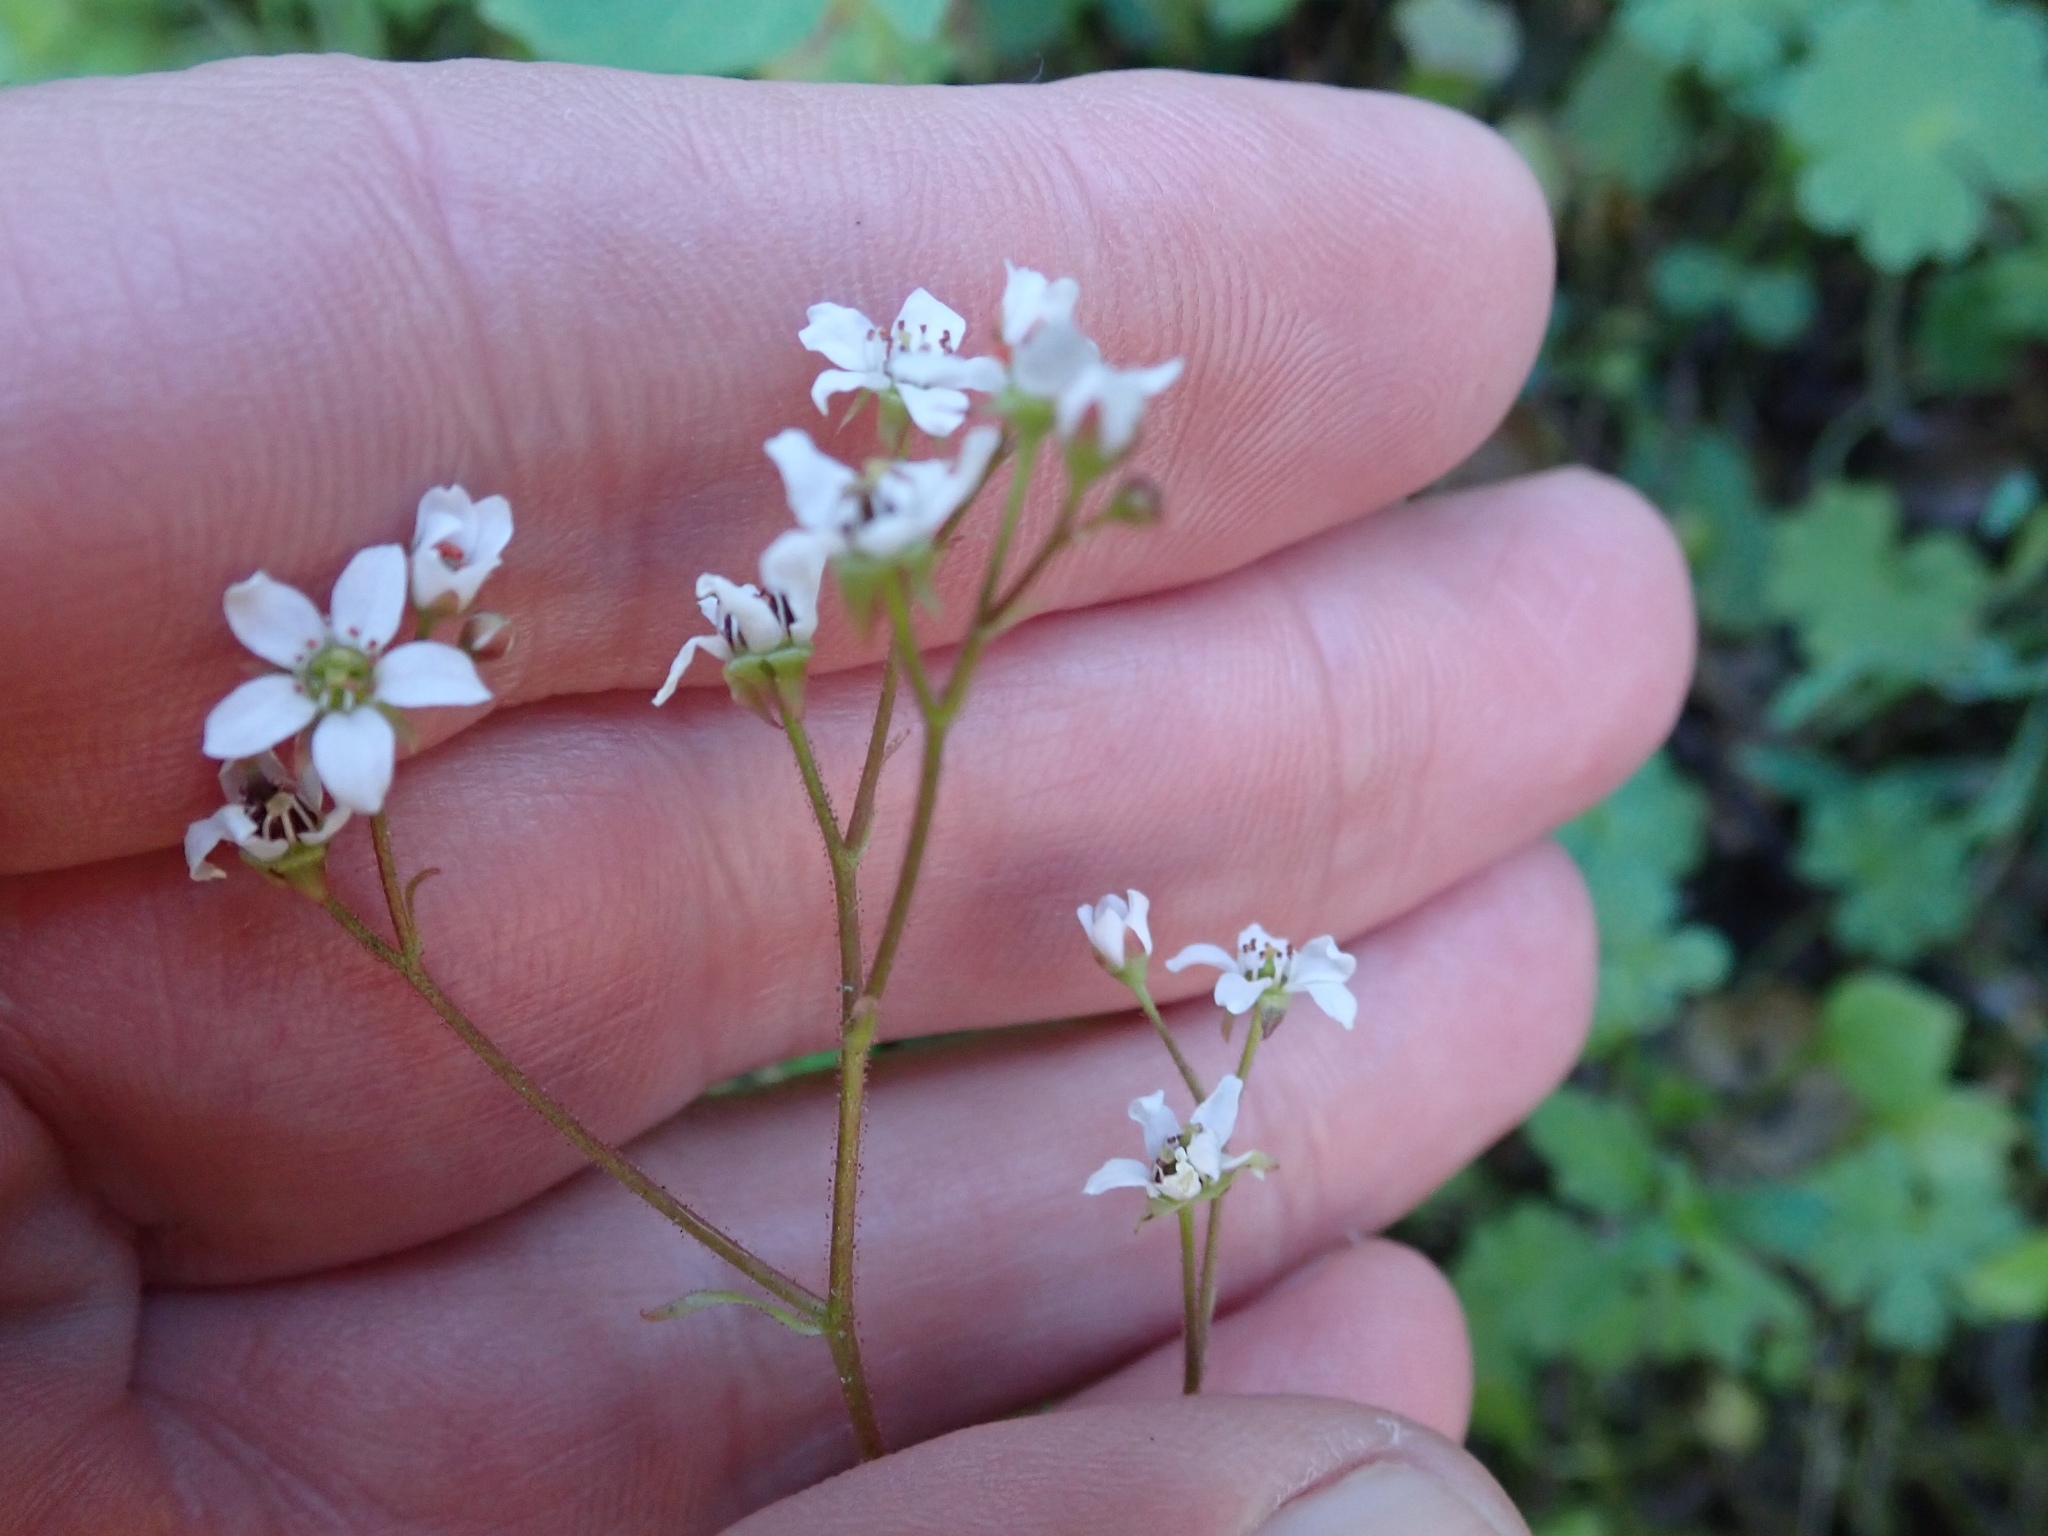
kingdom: Plantae
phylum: Tracheophyta
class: Magnoliopsida
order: Saxifragales
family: Saxifragaceae
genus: Micranthes
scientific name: Micranthes californica
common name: California saxifrage
